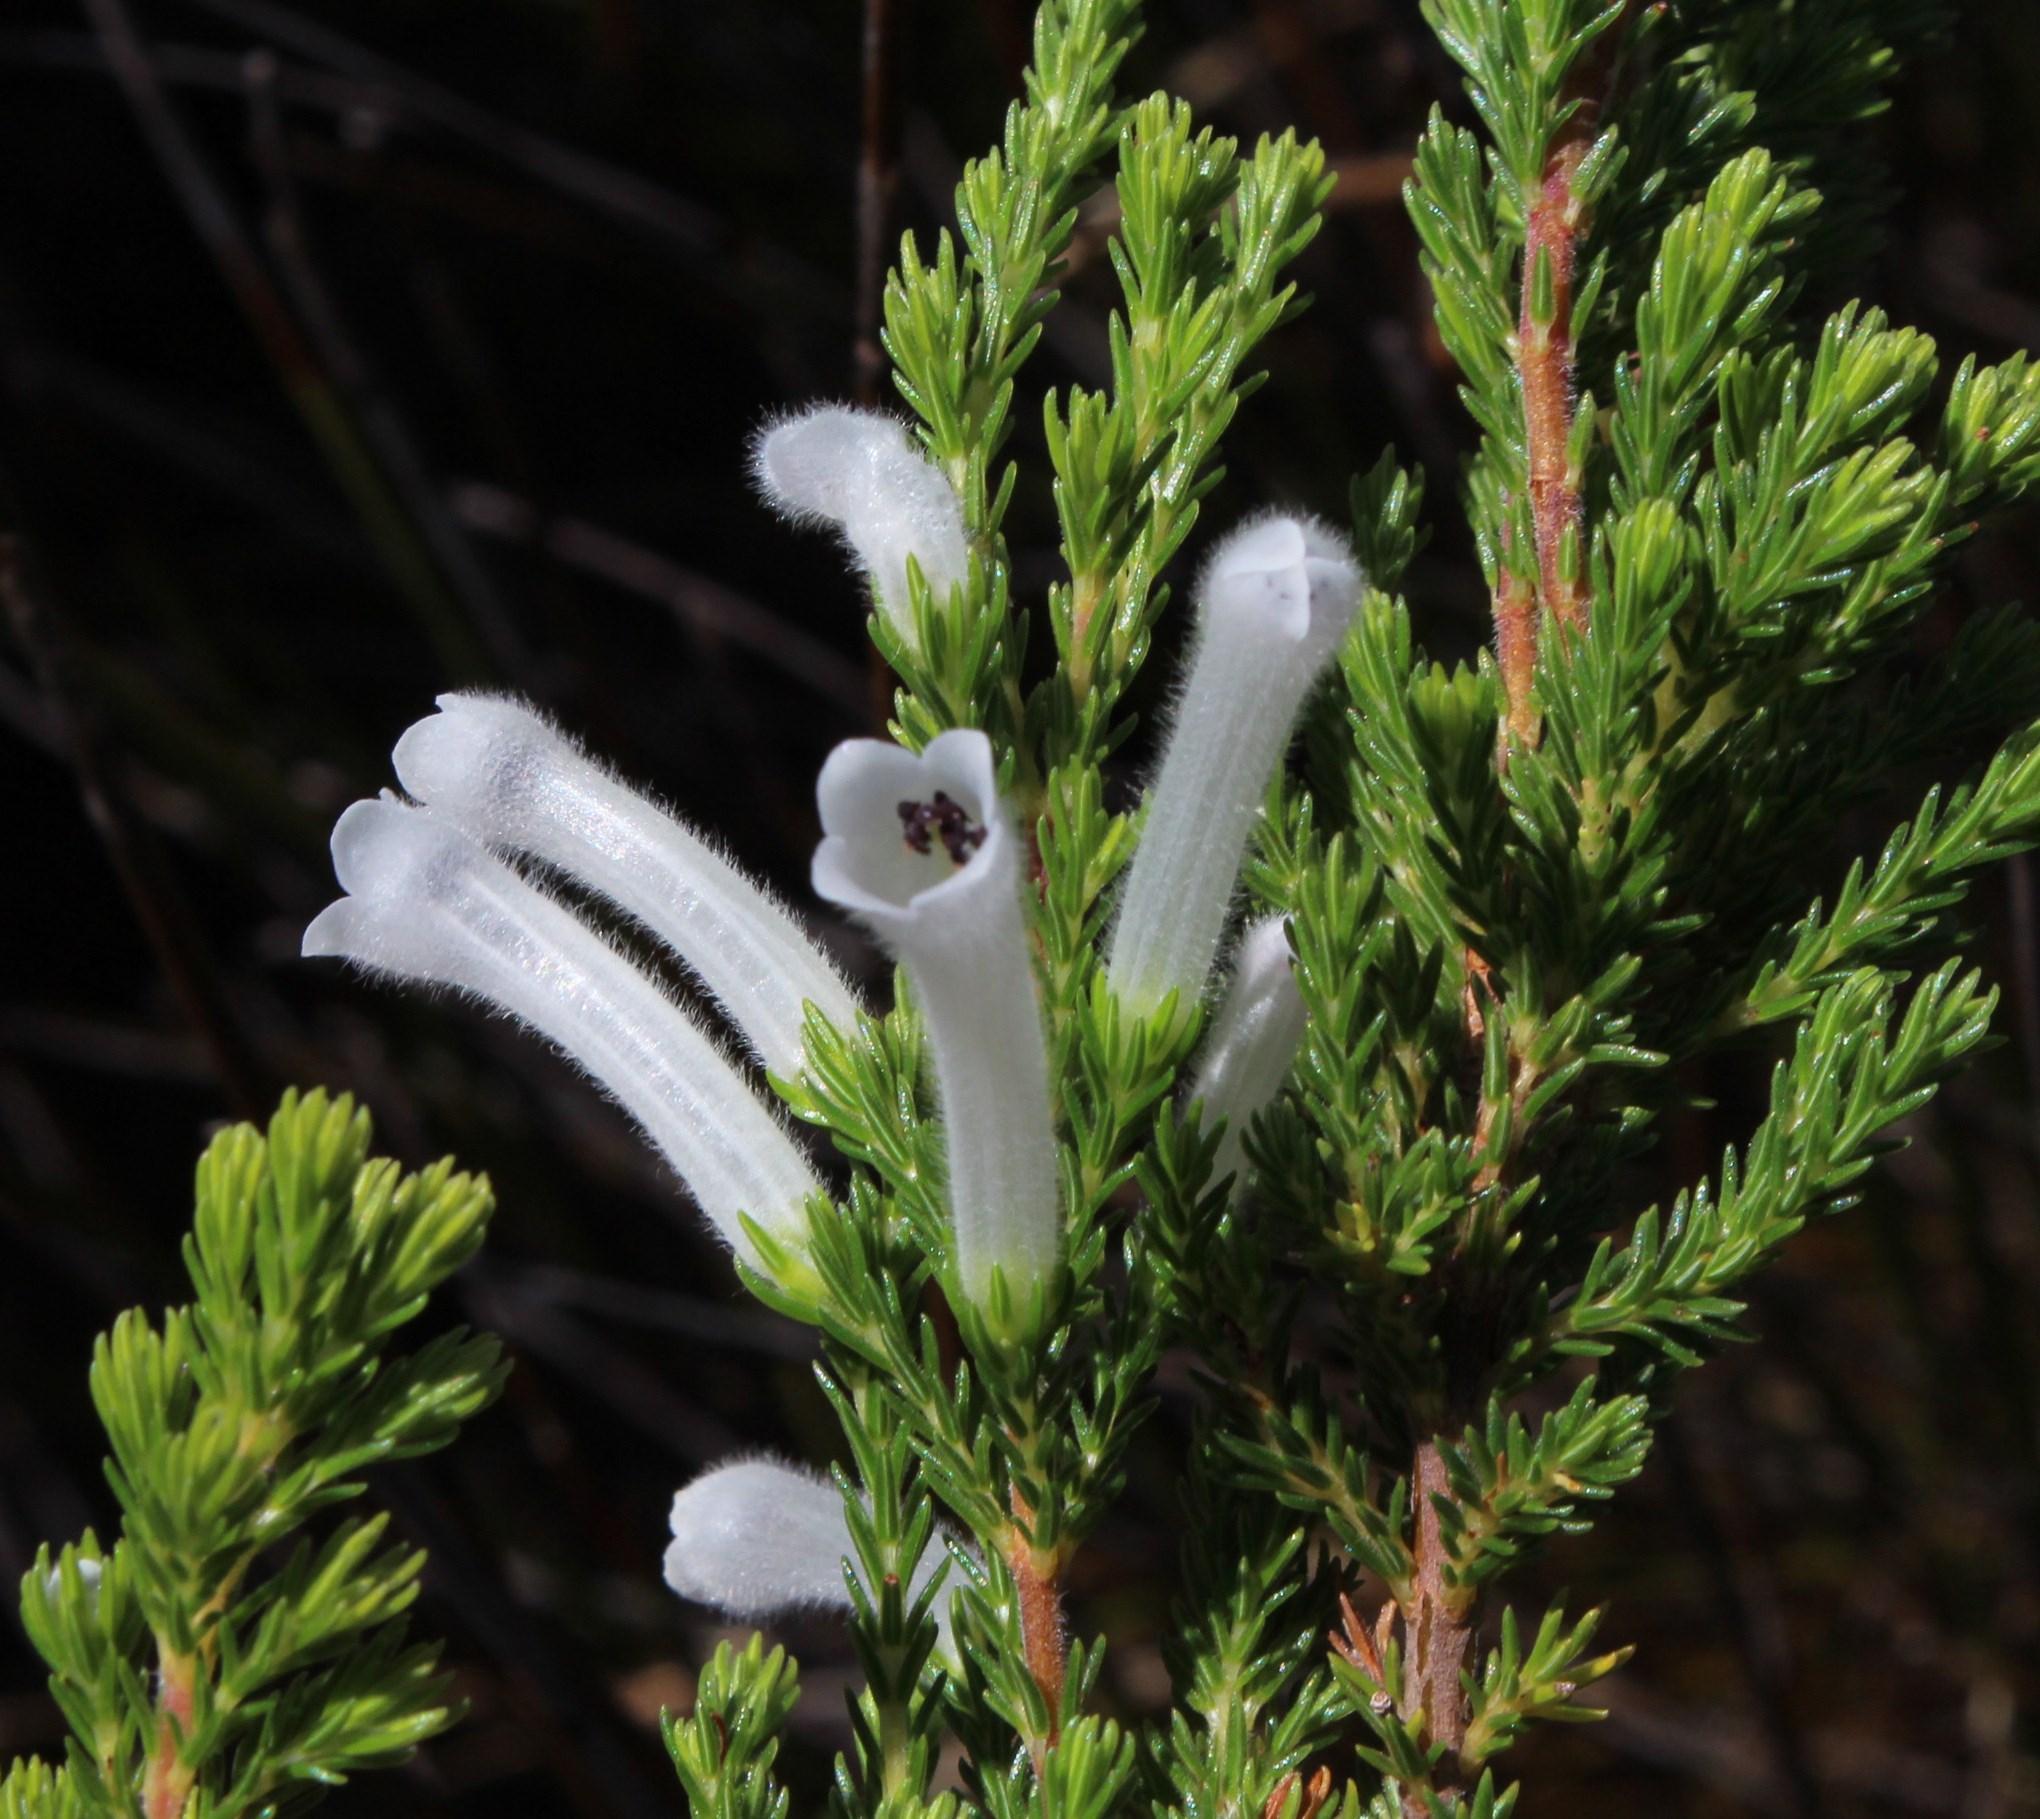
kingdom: Plantae
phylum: Tracheophyta
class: Magnoliopsida
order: Ericales
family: Ericaceae
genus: Erica
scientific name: Erica perspicua
